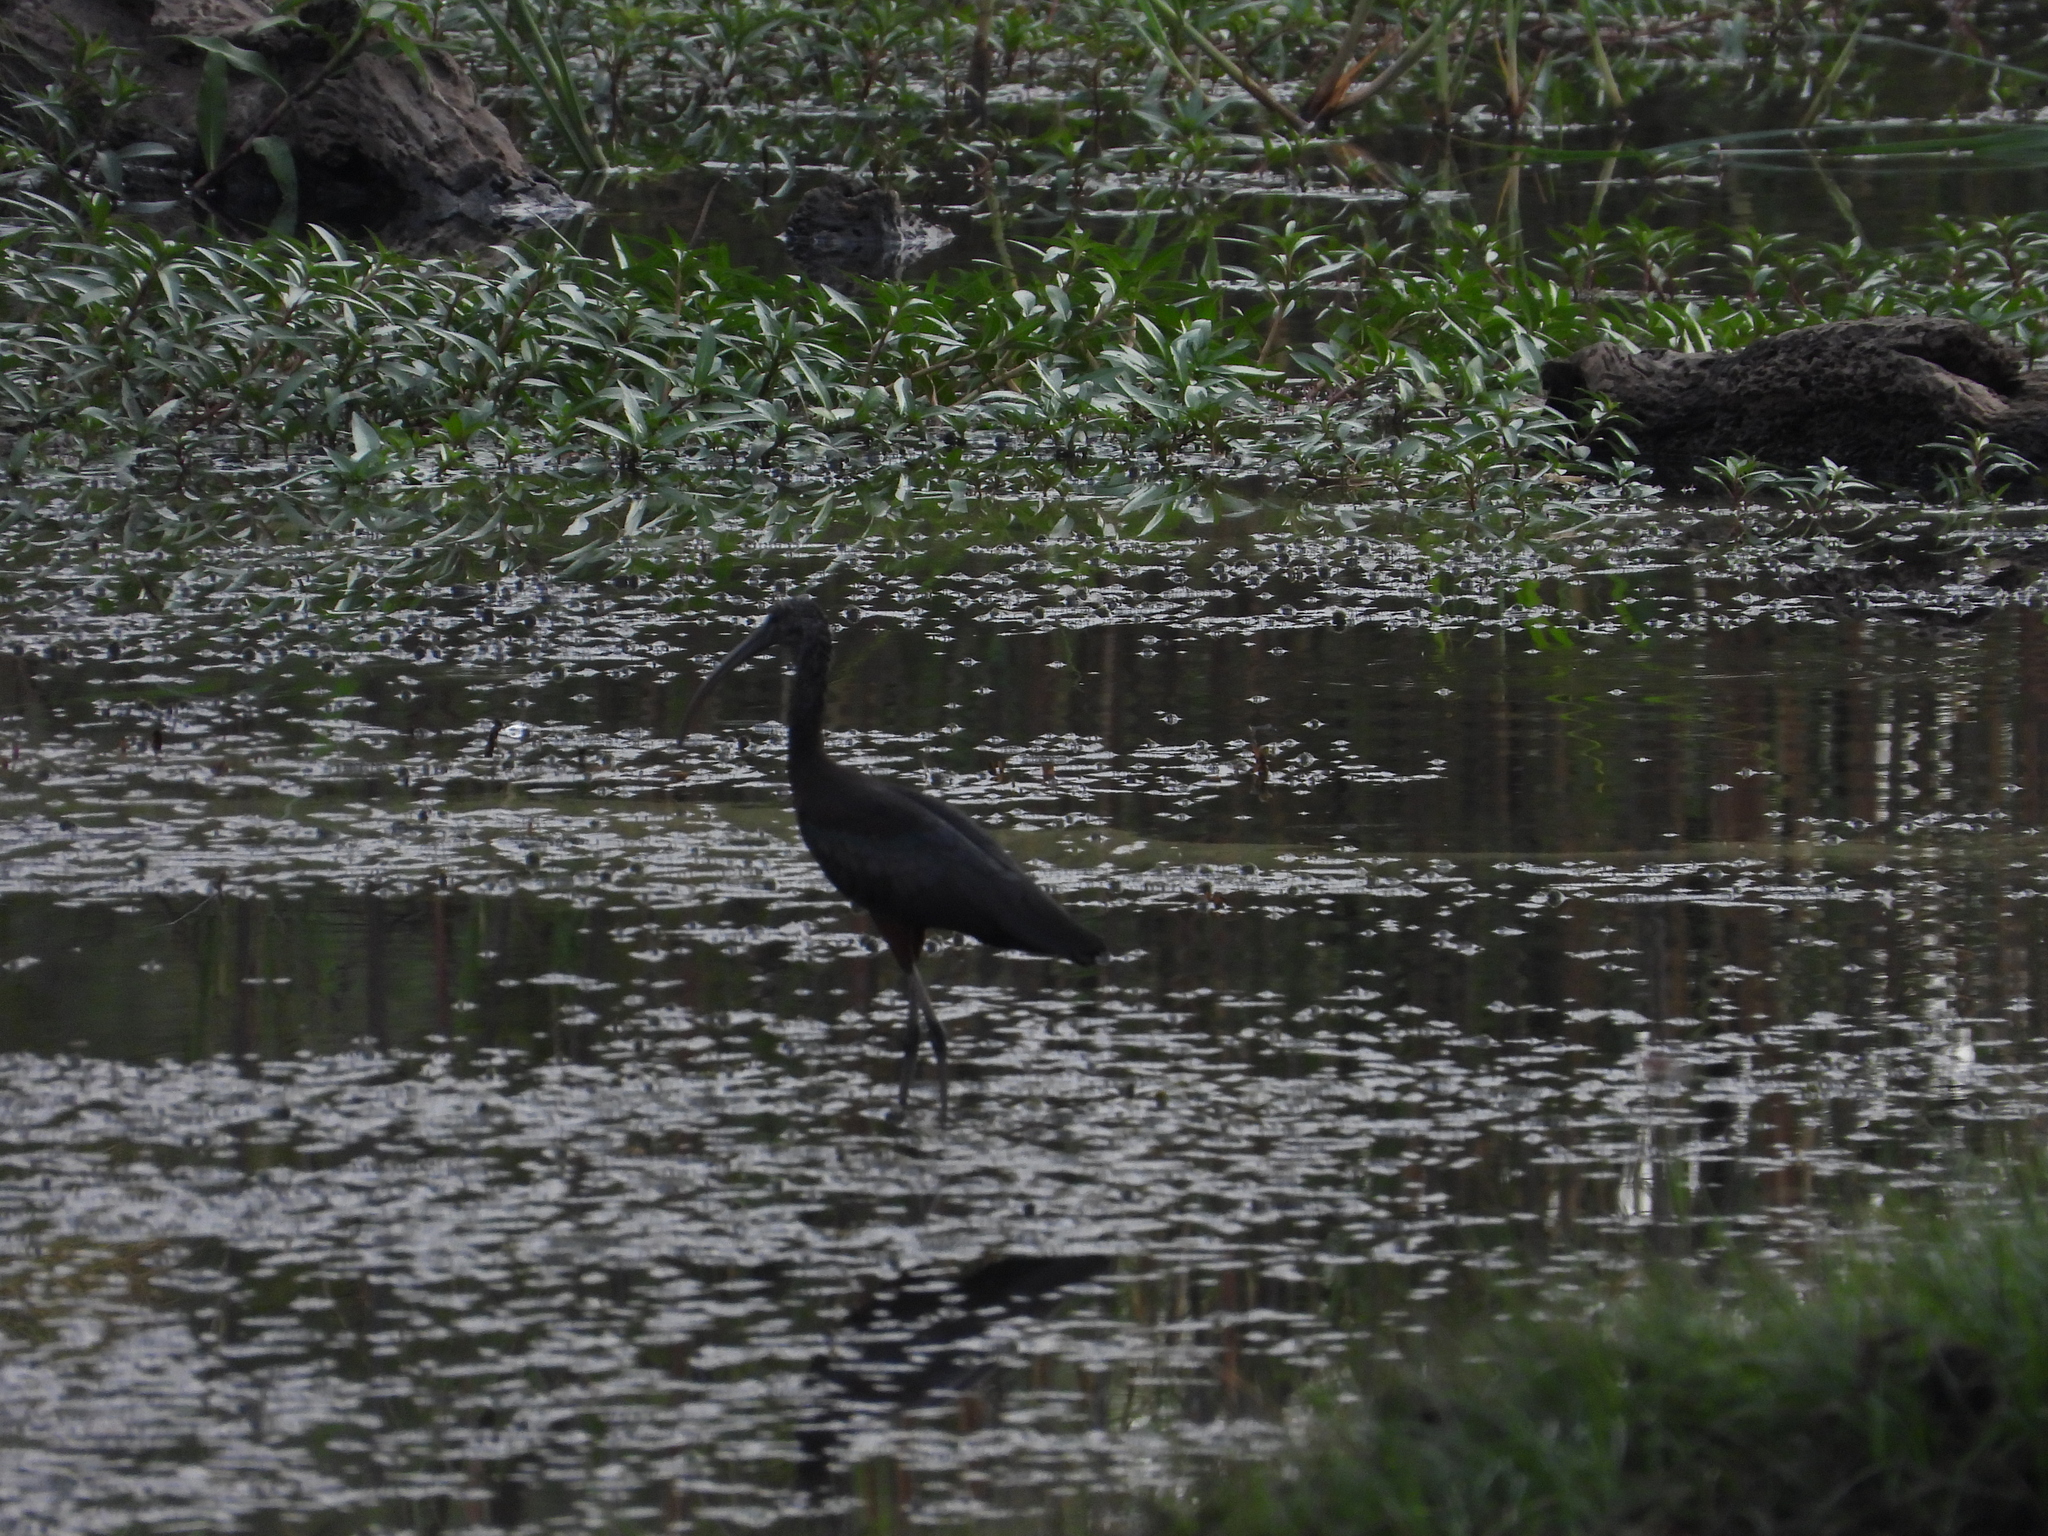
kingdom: Animalia
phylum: Chordata
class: Aves
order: Pelecaniformes
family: Threskiornithidae
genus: Plegadis
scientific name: Plegadis falcinellus
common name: Glossy ibis
